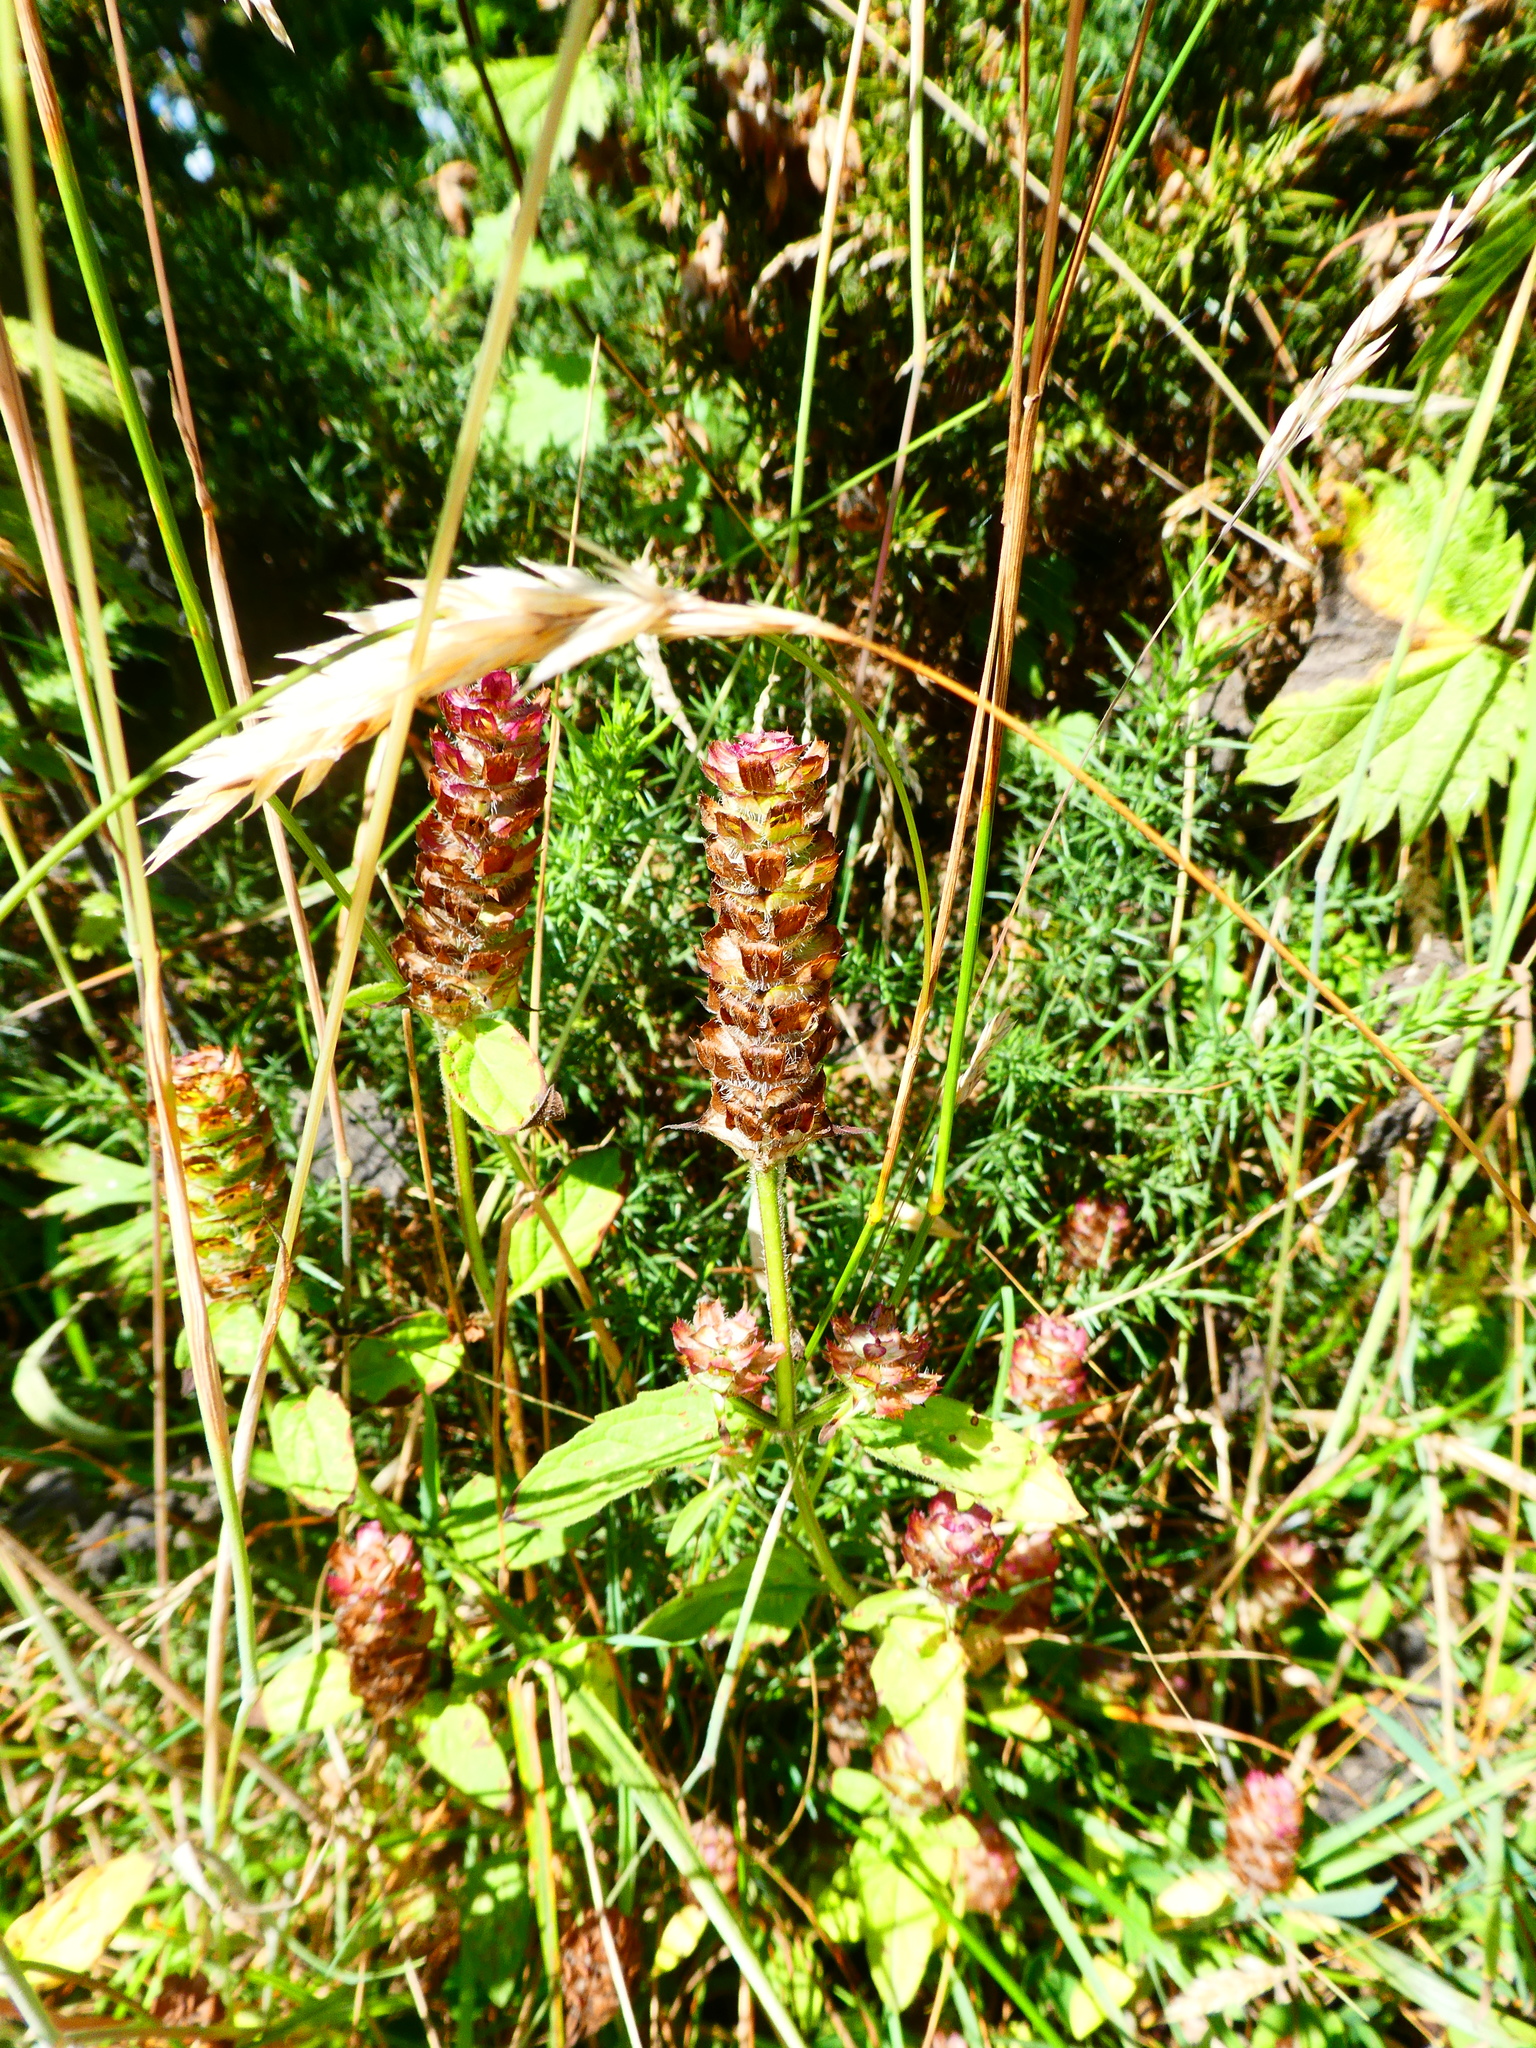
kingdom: Plantae
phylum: Tracheophyta
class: Magnoliopsida
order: Lamiales
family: Lamiaceae
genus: Prunella
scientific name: Prunella vulgaris
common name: Heal-all
